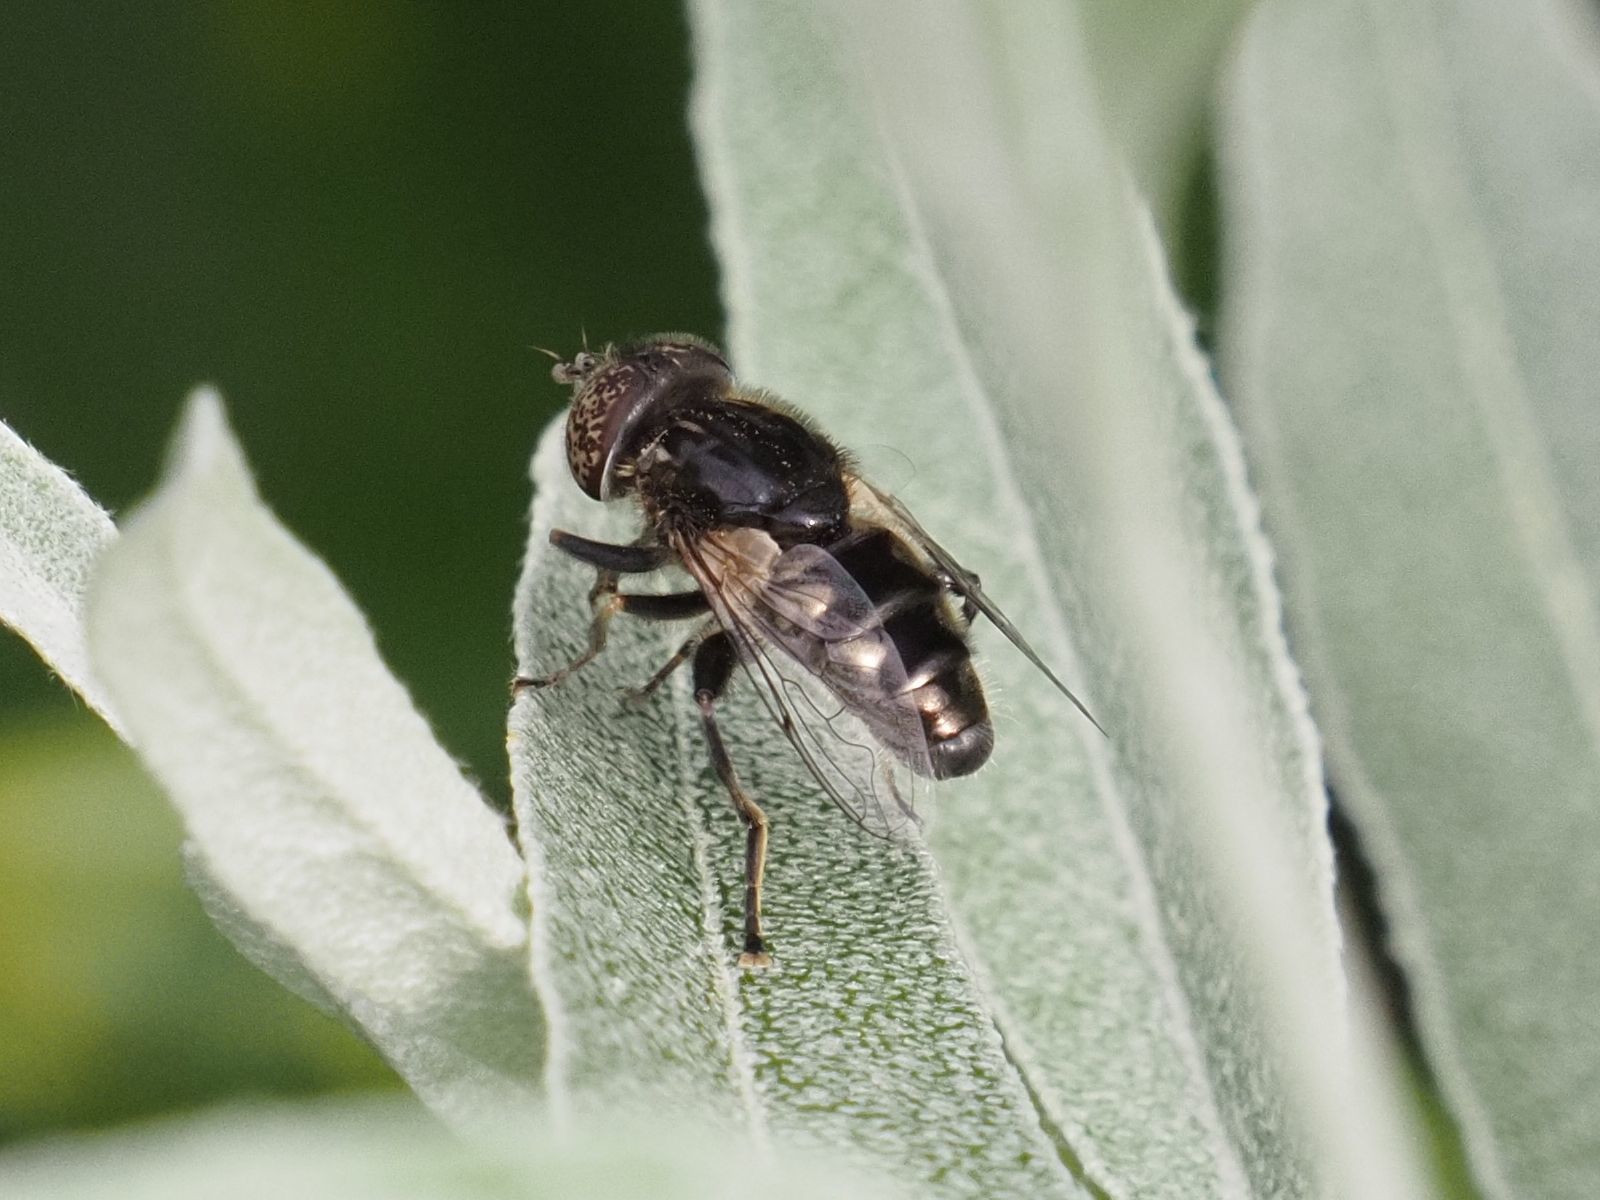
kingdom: Animalia
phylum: Arthropoda
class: Insecta
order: Diptera
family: Syrphidae
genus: Eristalinus
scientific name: Eristalinus sepulchralis
